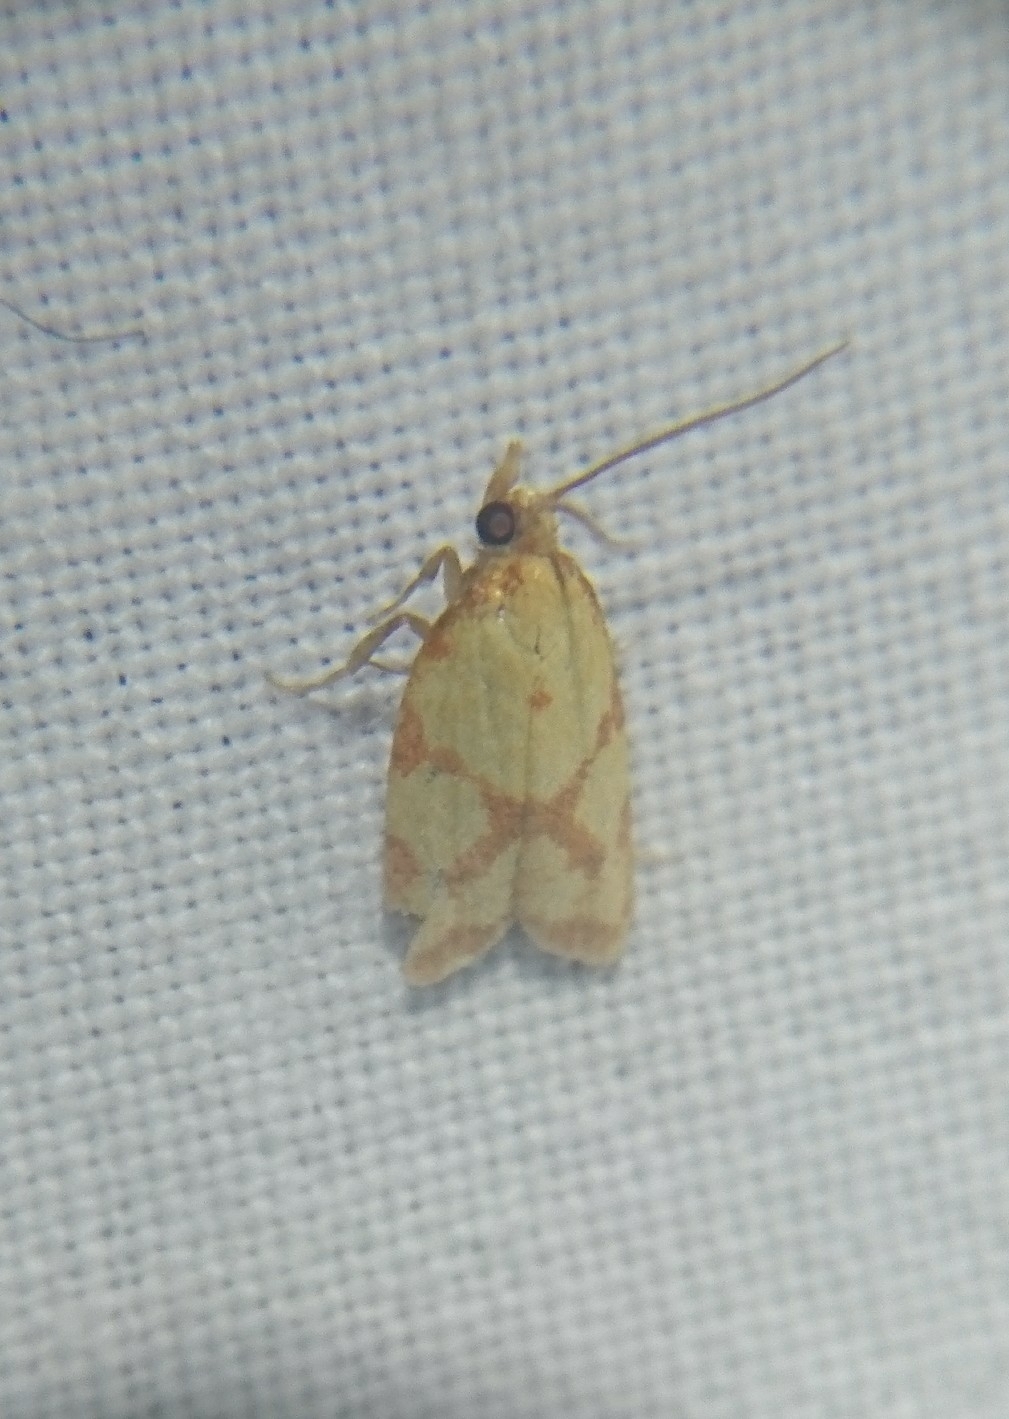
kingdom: Animalia
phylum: Arthropoda
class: Insecta
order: Lepidoptera
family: Tortricidae
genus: Sparganothis
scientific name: Sparganothis sulfureana
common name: Sparganothis fruitworm moth
